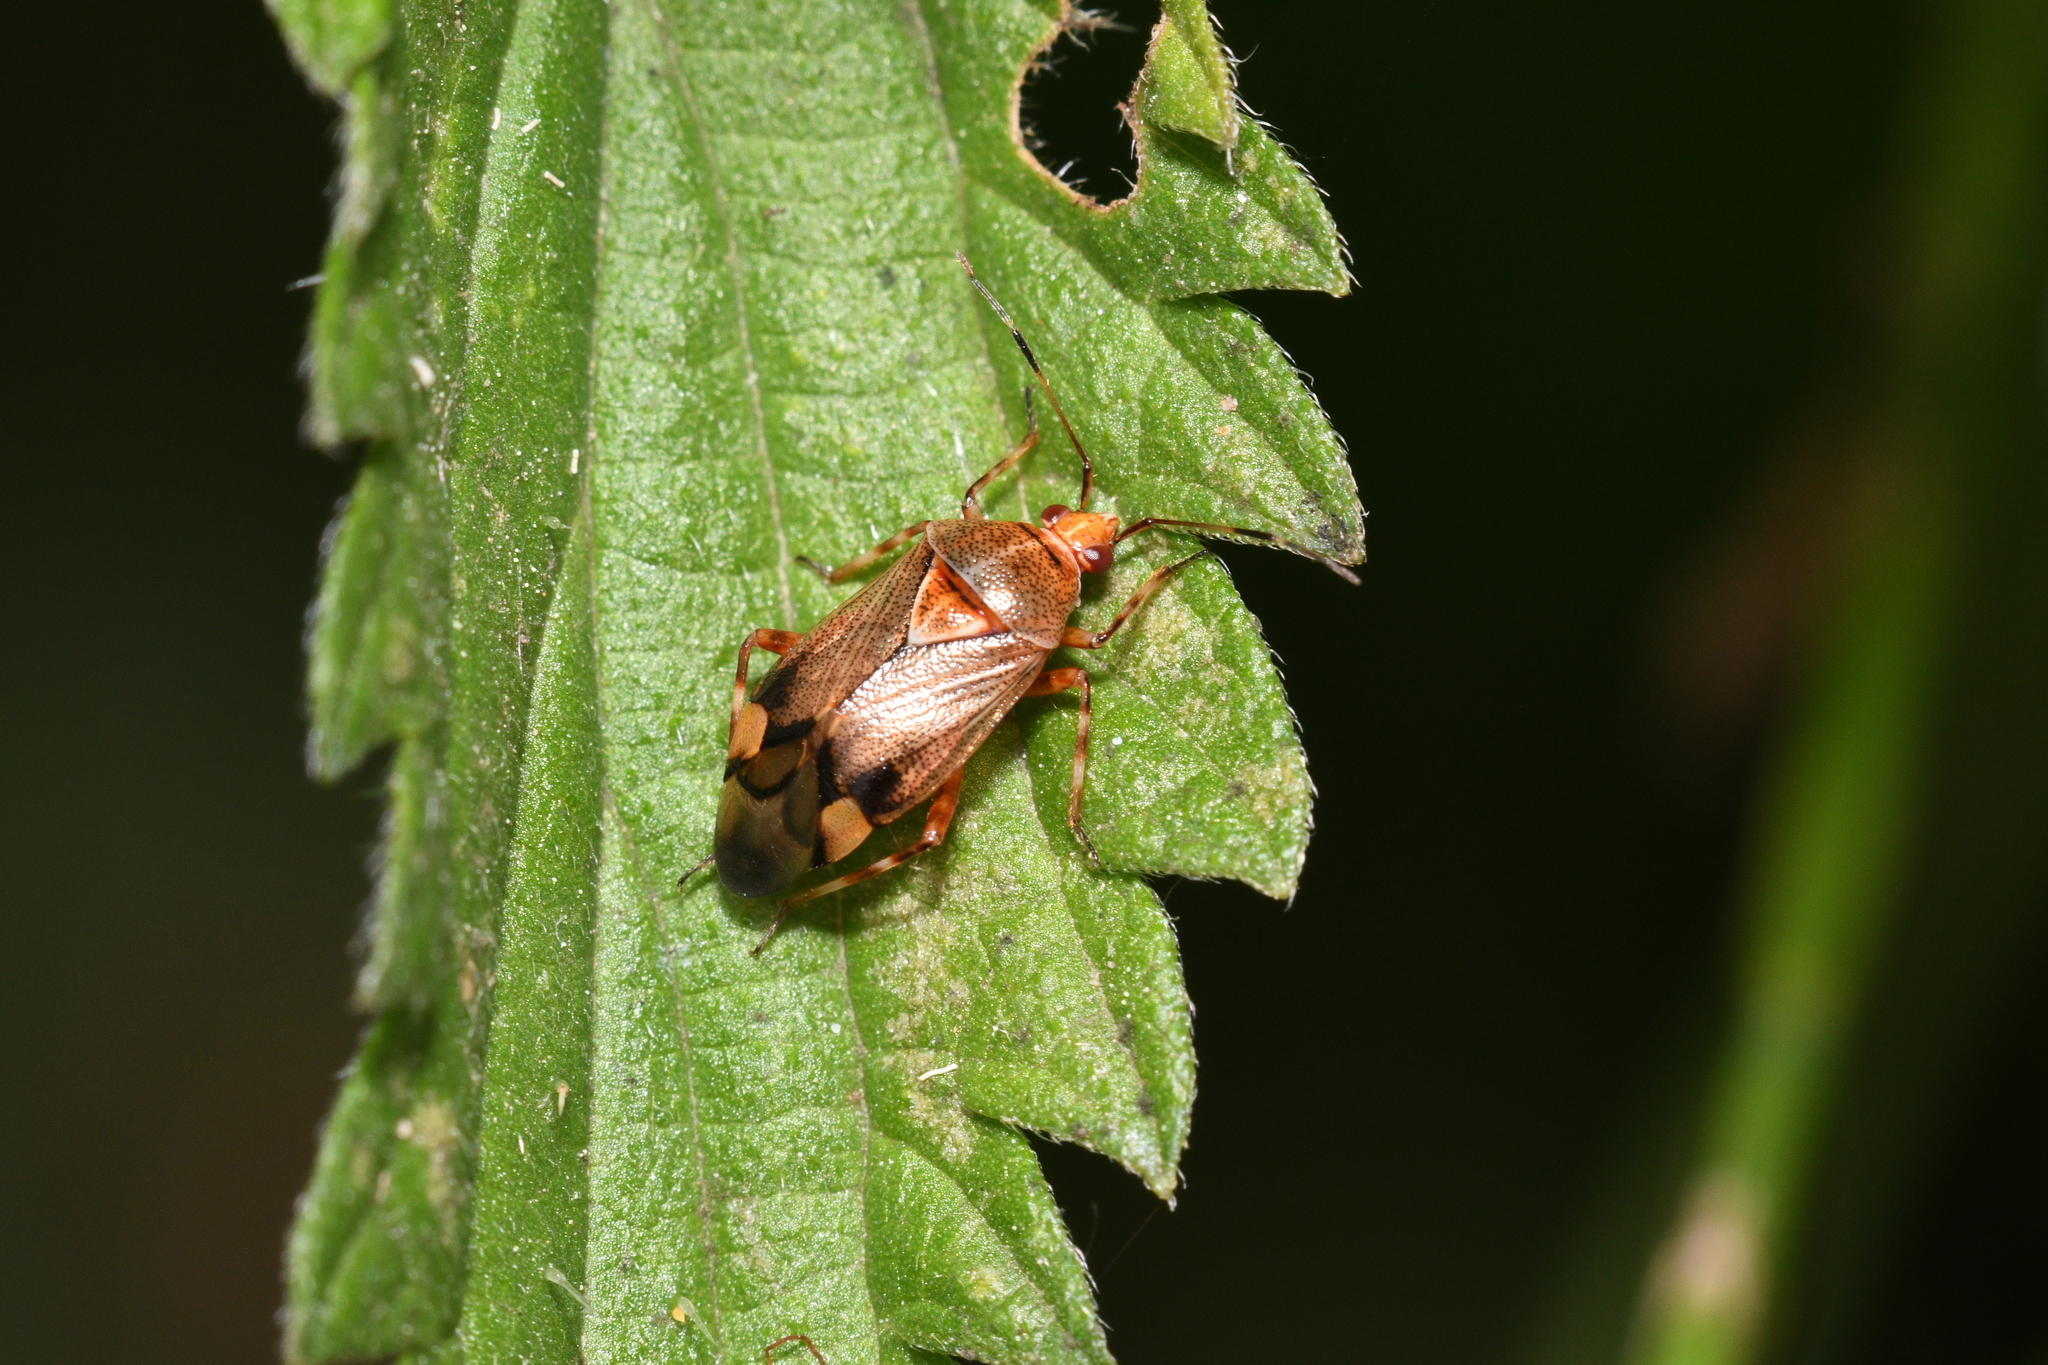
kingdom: Animalia
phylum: Arthropoda
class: Insecta
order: Hemiptera
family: Miridae
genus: Deraeocoris
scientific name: Deraeocoris flavilinea
